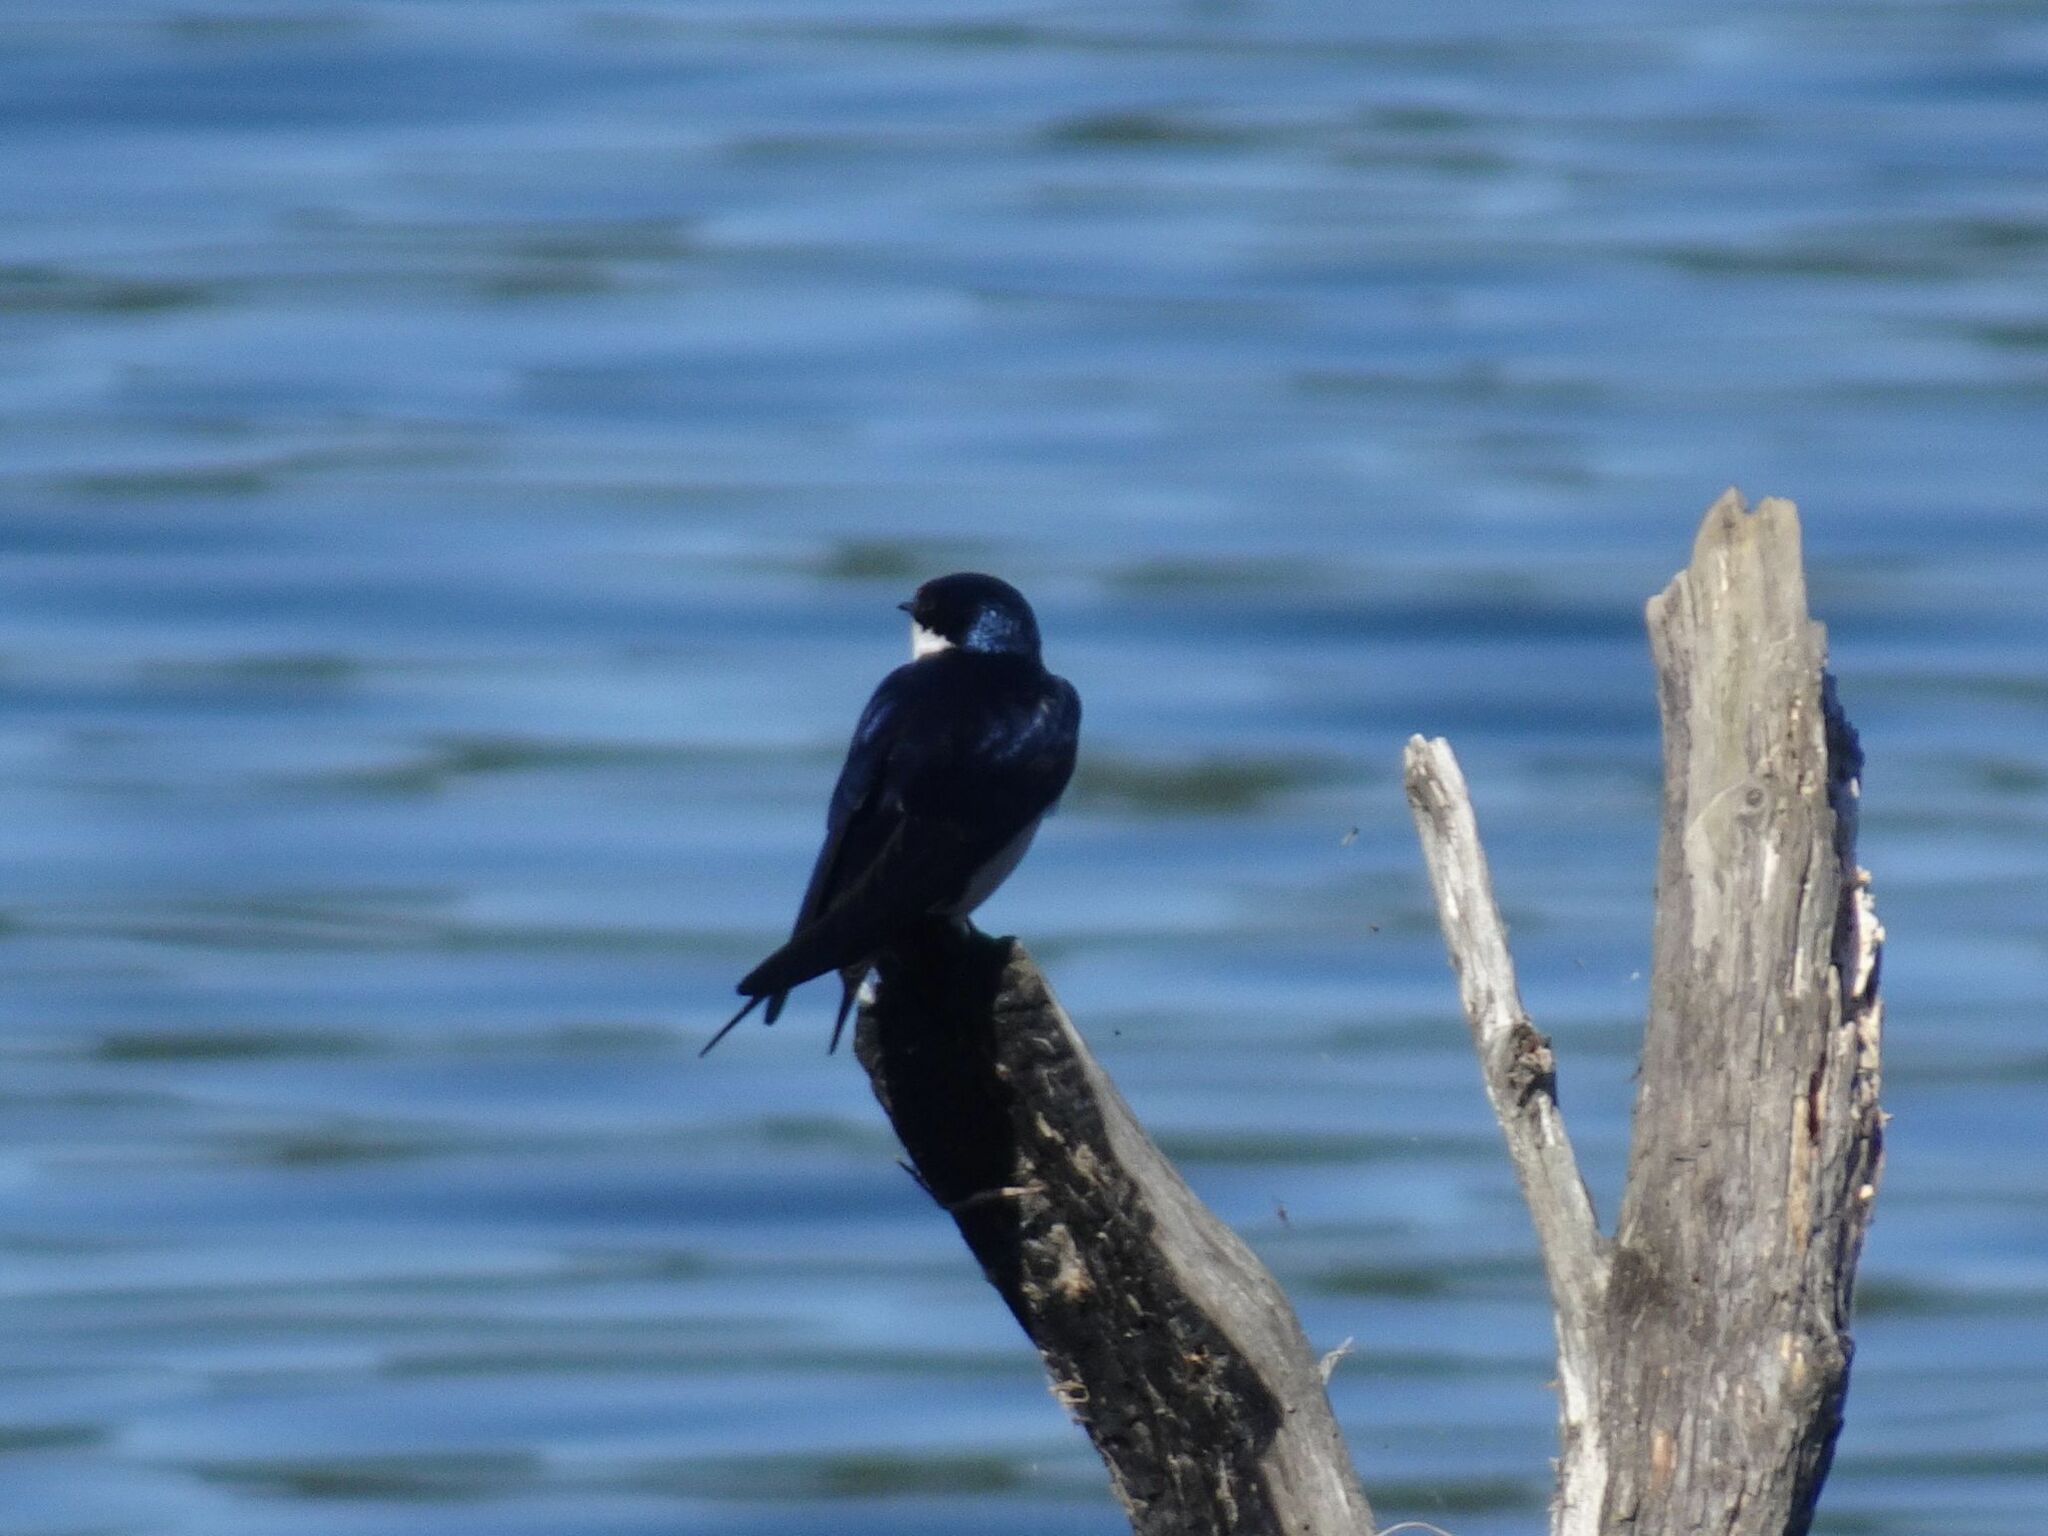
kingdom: Animalia
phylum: Chordata
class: Aves
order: Passeriformes
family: Hirundinidae
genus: Hirundo
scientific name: Hirundo albigularis
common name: White-throated swallow
